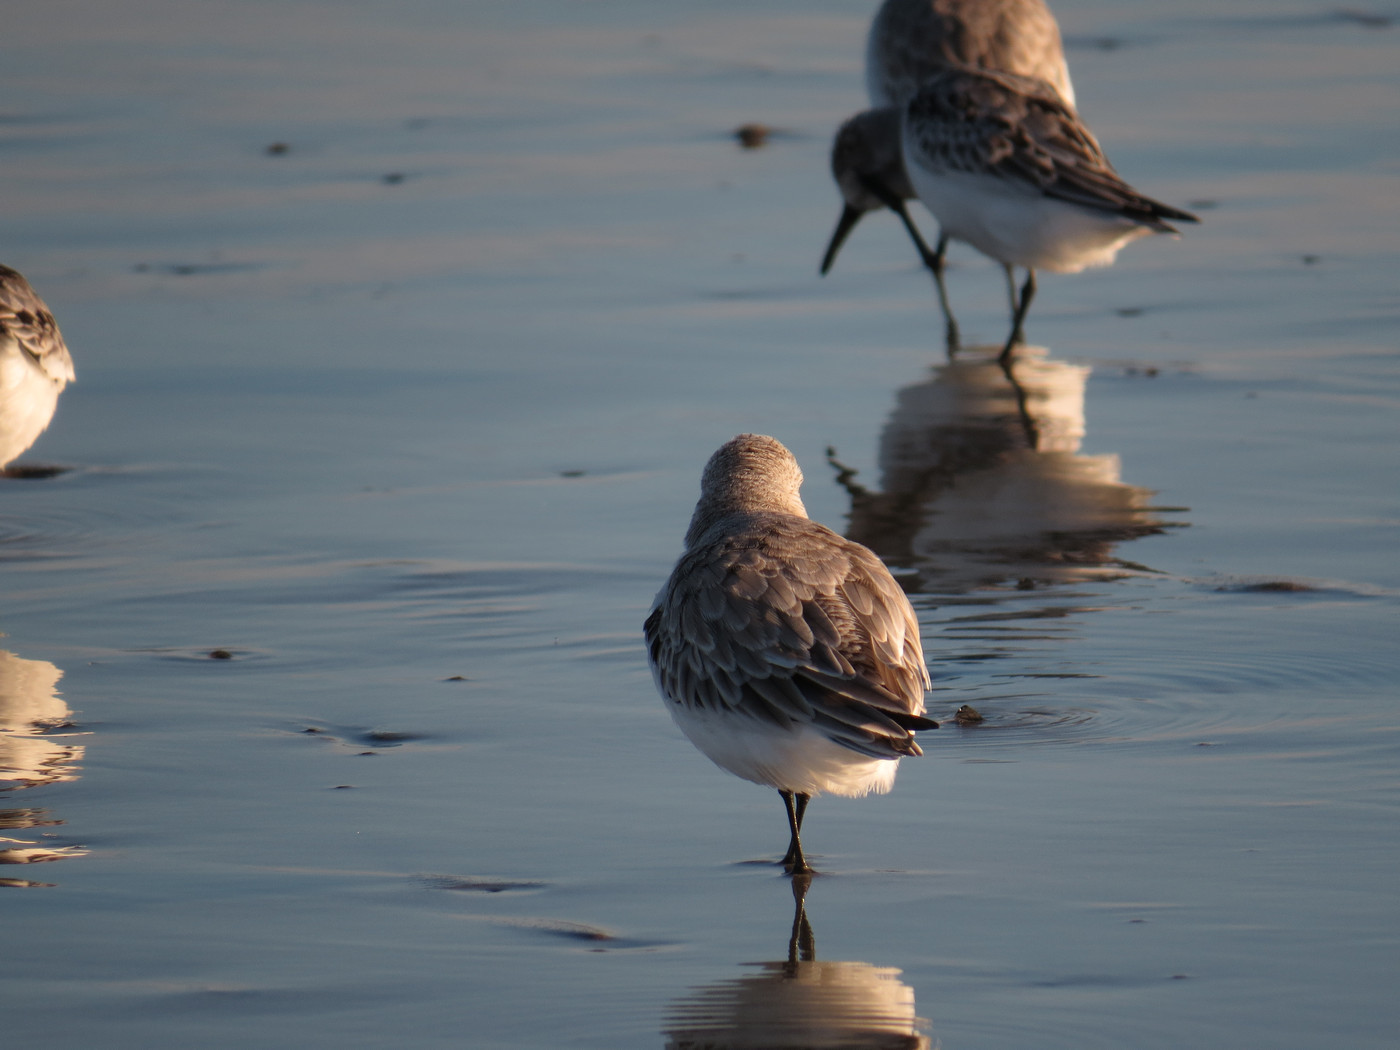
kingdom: Animalia
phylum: Chordata
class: Aves
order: Charadriiformes
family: Scolopacidae
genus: Calidris
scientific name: Calidris alba
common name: Sanderling
